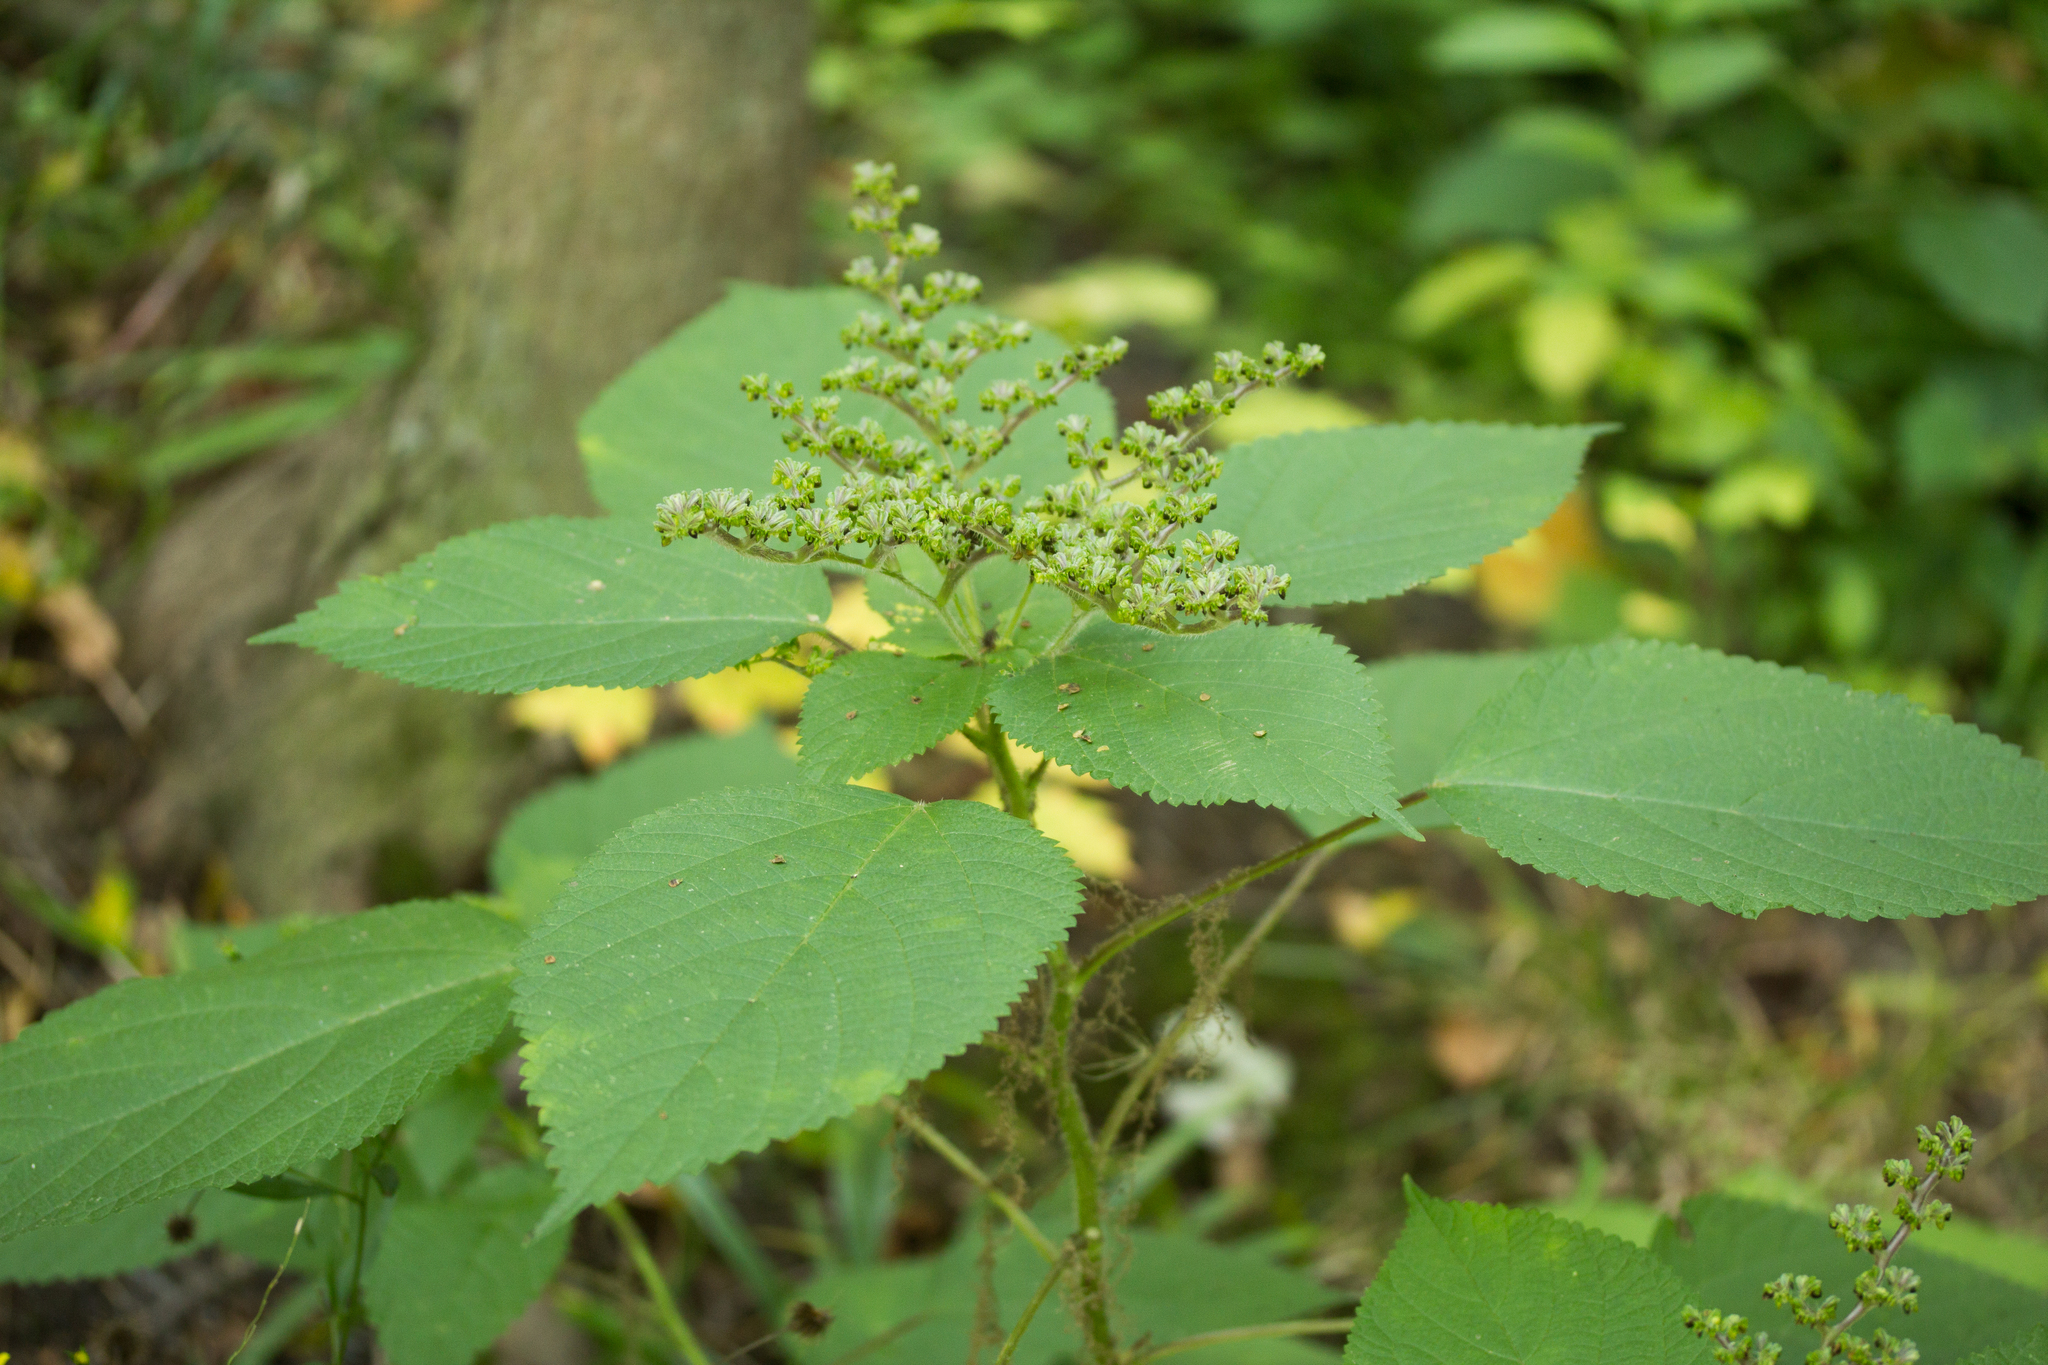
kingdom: Plantae
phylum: Tracheophyta
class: Magnoliopsida
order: Rosales
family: Urticaceae
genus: Laportea
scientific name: Laportea canadensis
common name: Canada nettle
